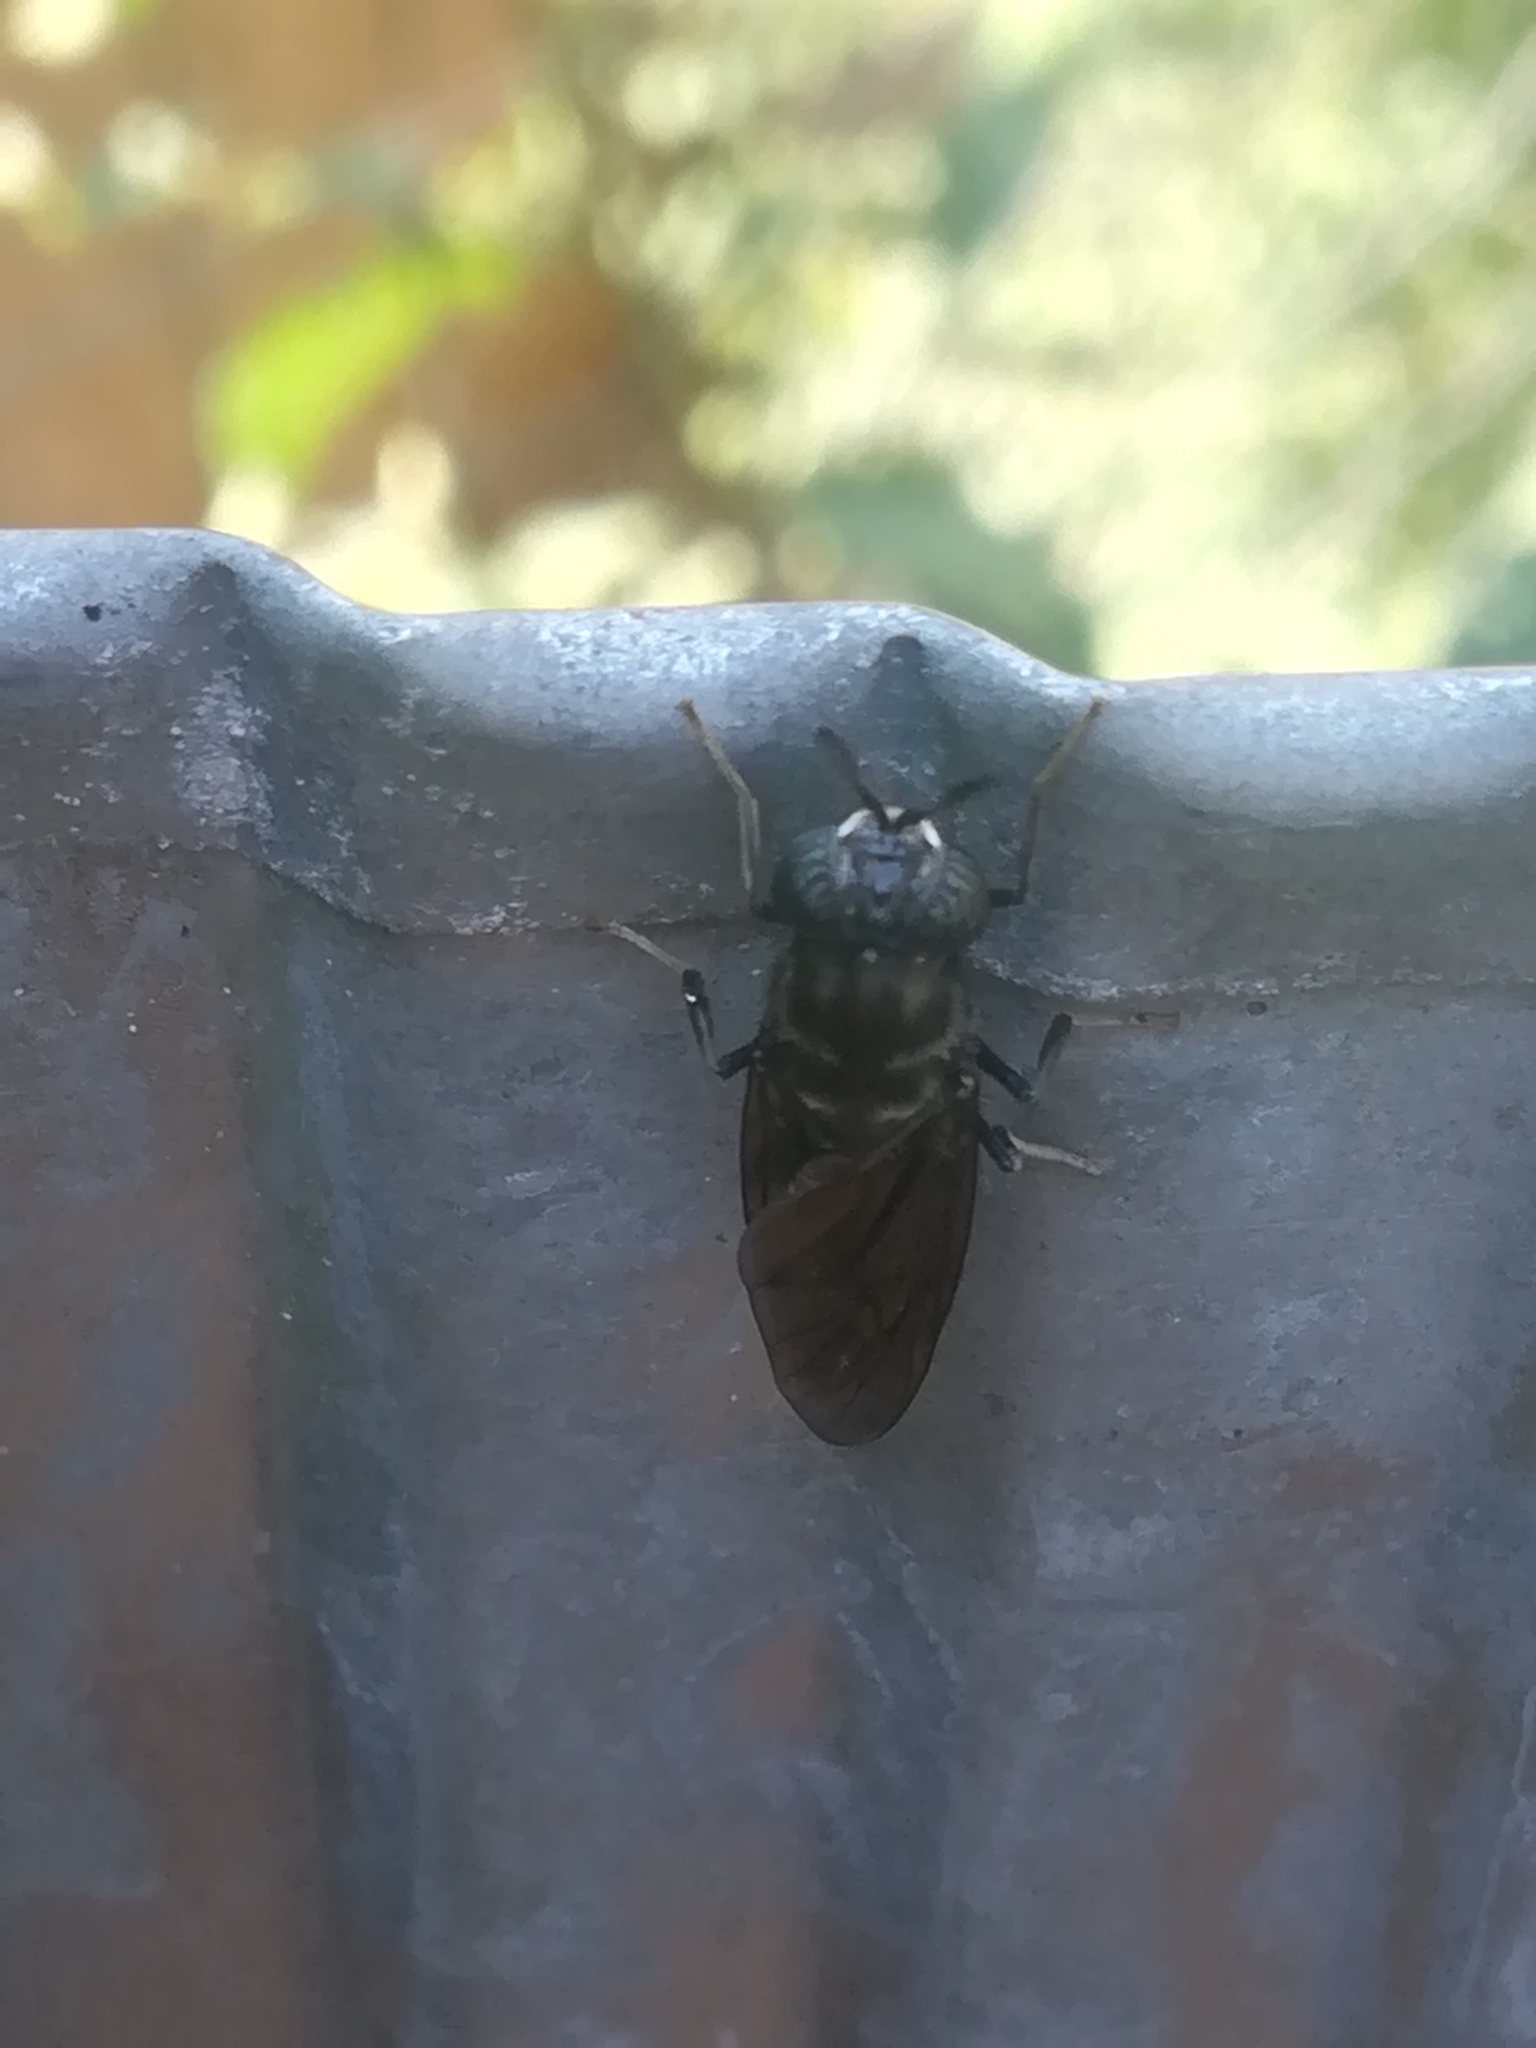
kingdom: Animalia
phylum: Arthropoda
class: Insecta
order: Diptera
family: Stratiomyidae
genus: Hermetia
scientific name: Hermetia illucens
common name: Black soldier fly
